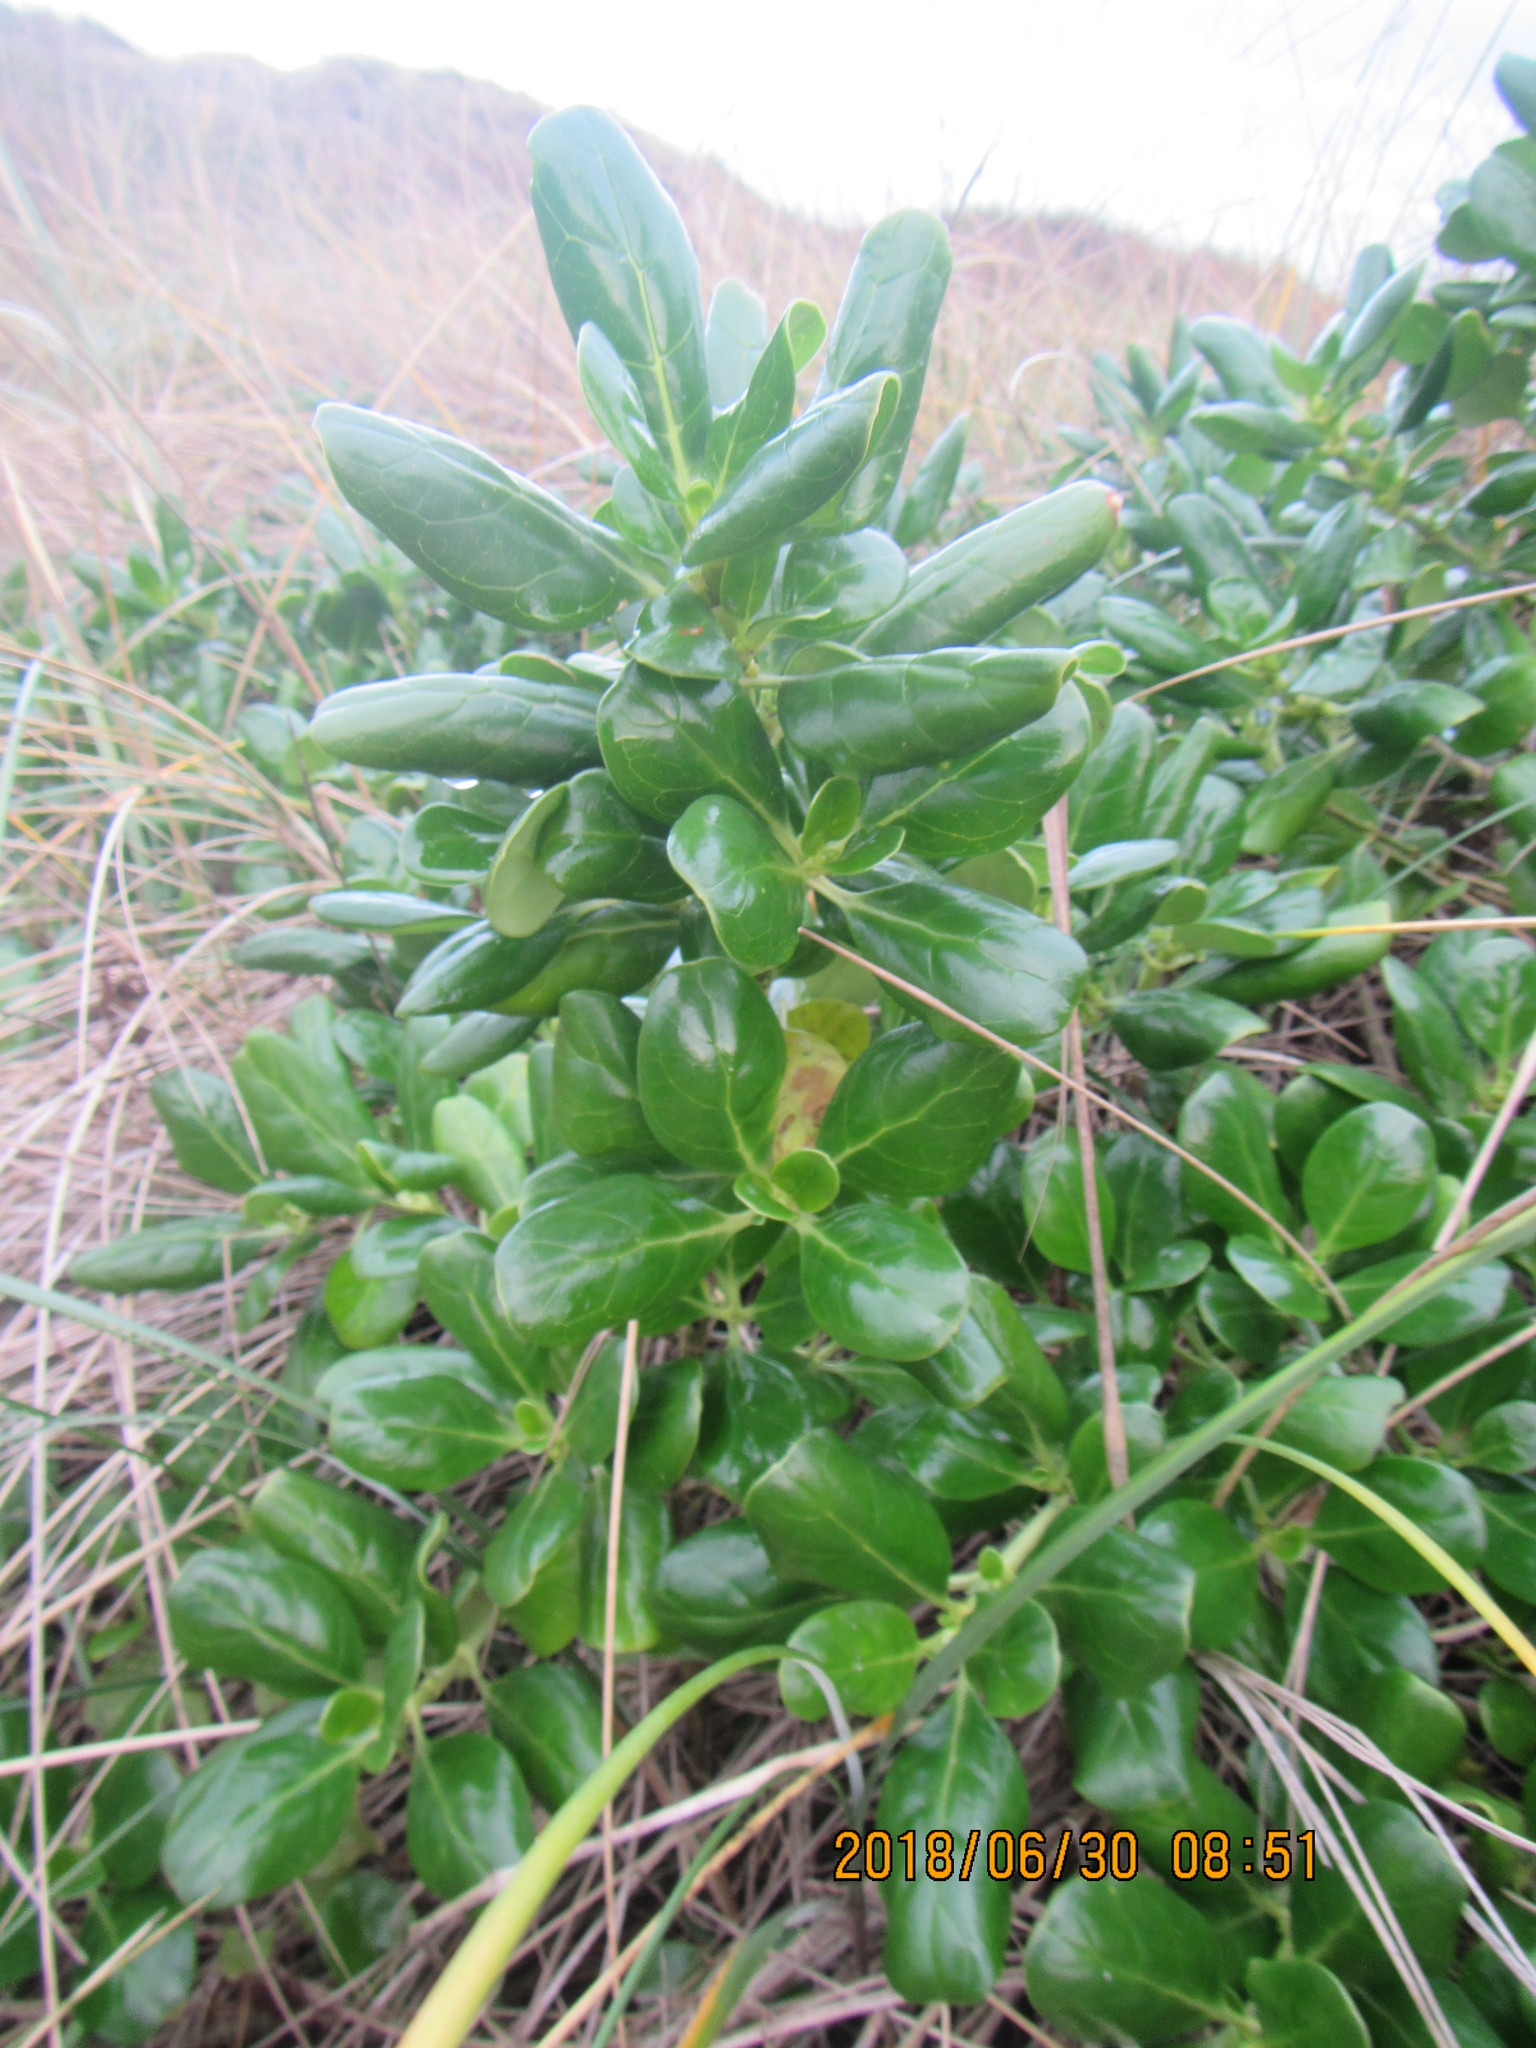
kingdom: Plantae
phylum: Tracheophyta
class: Magnoliopsida
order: Gentianales
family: Rubiaceae
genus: Coprosma
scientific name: Coprosma repens
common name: Tree bedstraw
